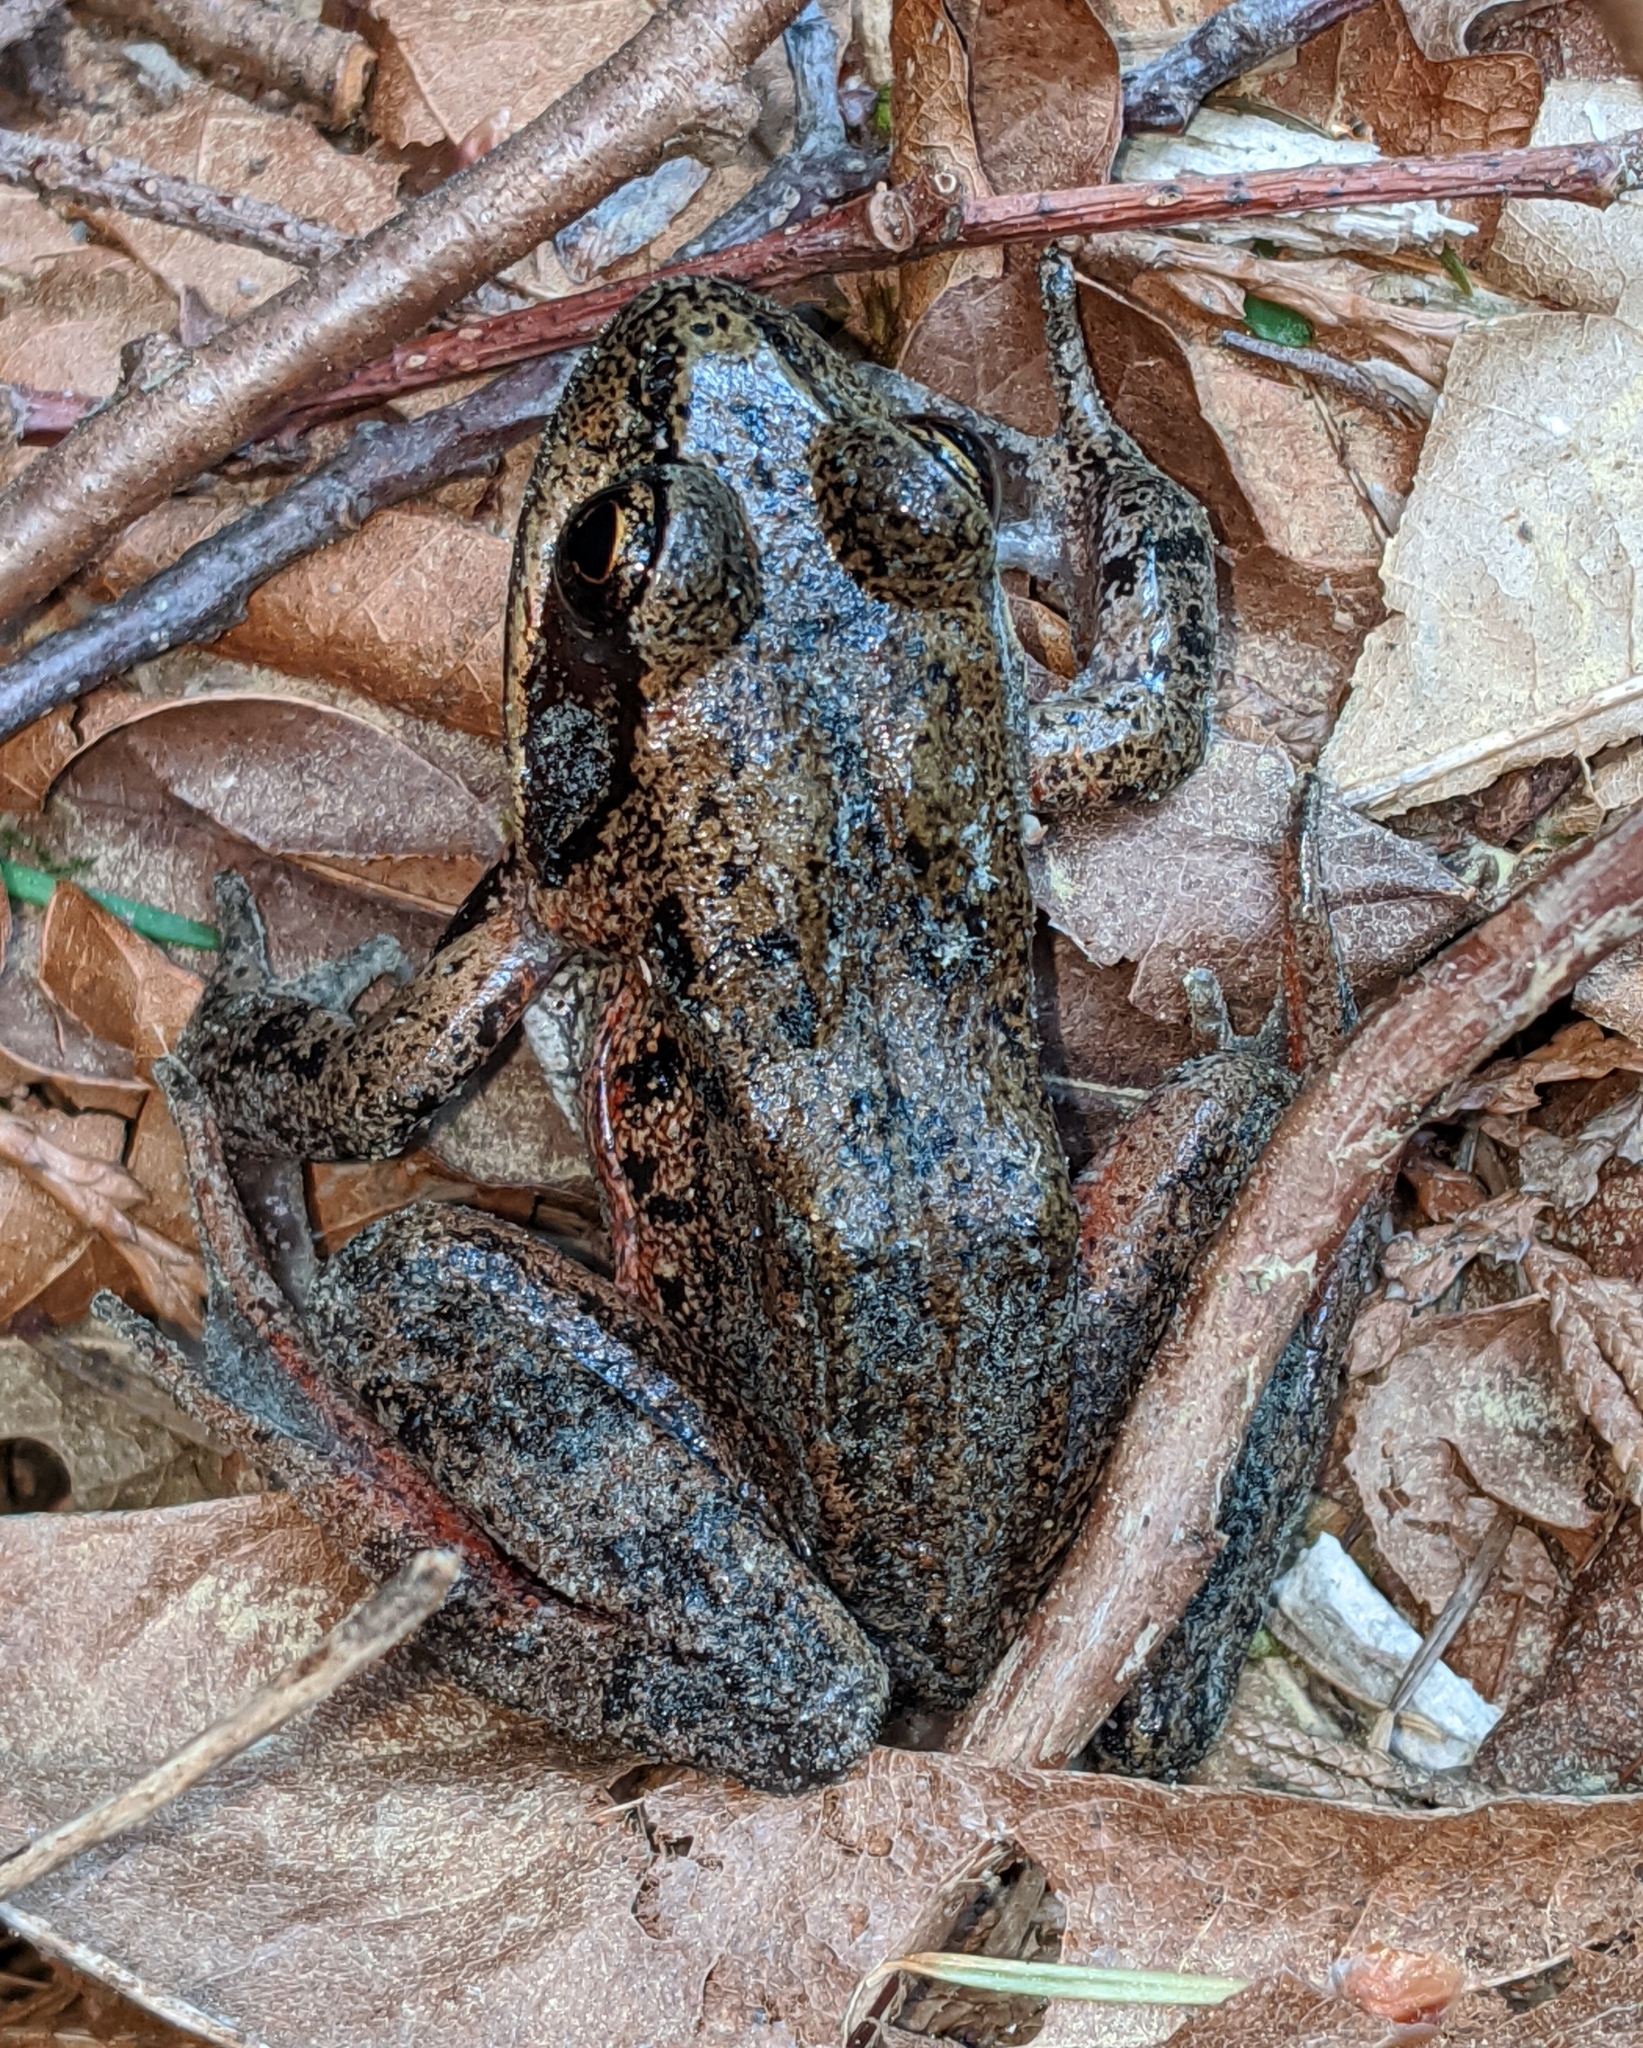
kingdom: Animalia
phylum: Chordata
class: Amphibia
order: Anura
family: Ranidae
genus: Rana
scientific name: Rana aurora
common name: Red-legged frog
